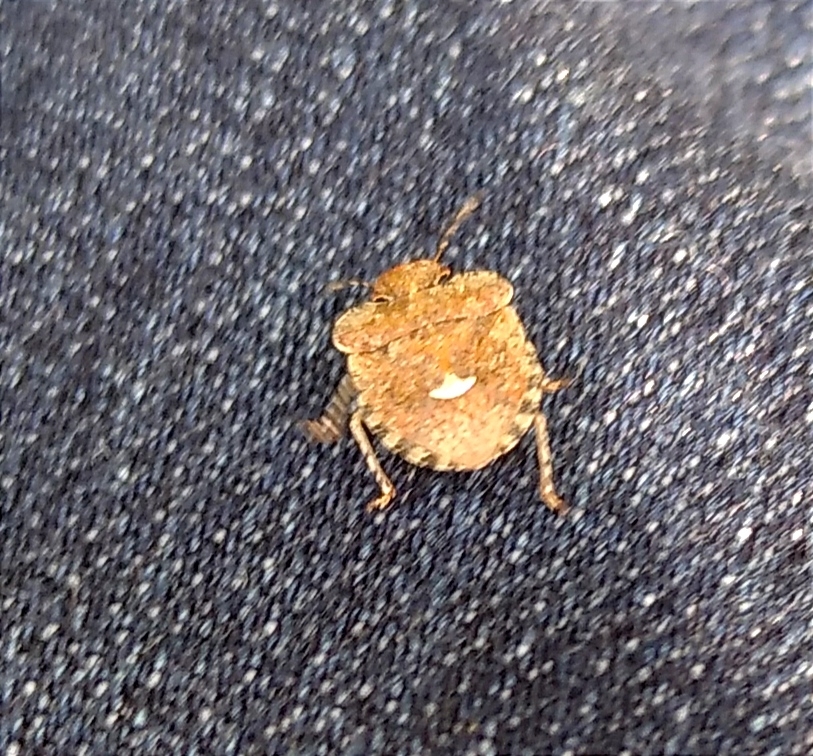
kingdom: Animalia
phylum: Arthropoda
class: Insecta
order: Hemiptera
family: Pentatomidae
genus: Dyroderes
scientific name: Dyroderes umbraculatus
